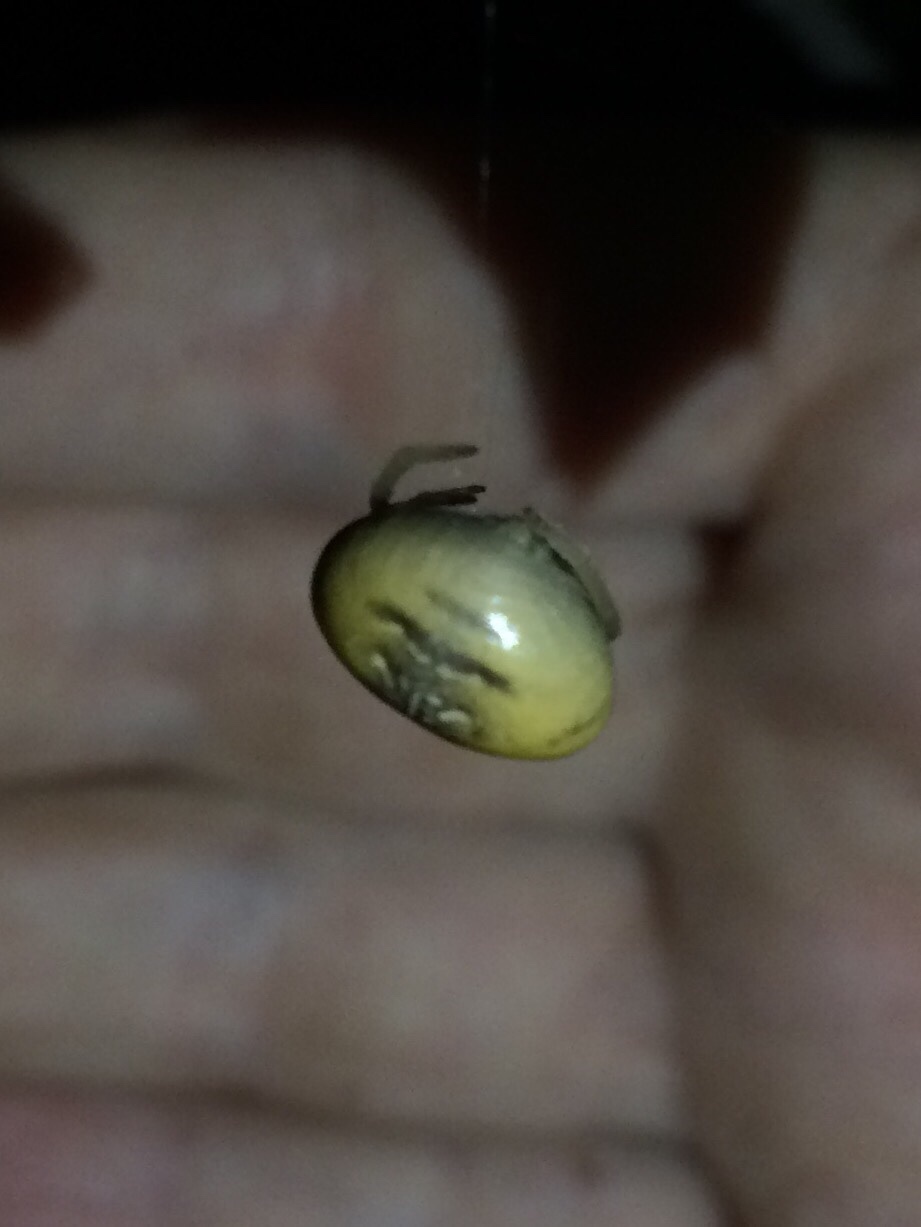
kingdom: Animalia
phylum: Arthropoda
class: Arachnida
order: Araneae
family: Araneidae
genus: Mastophora
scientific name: Mastophora bisaccata
